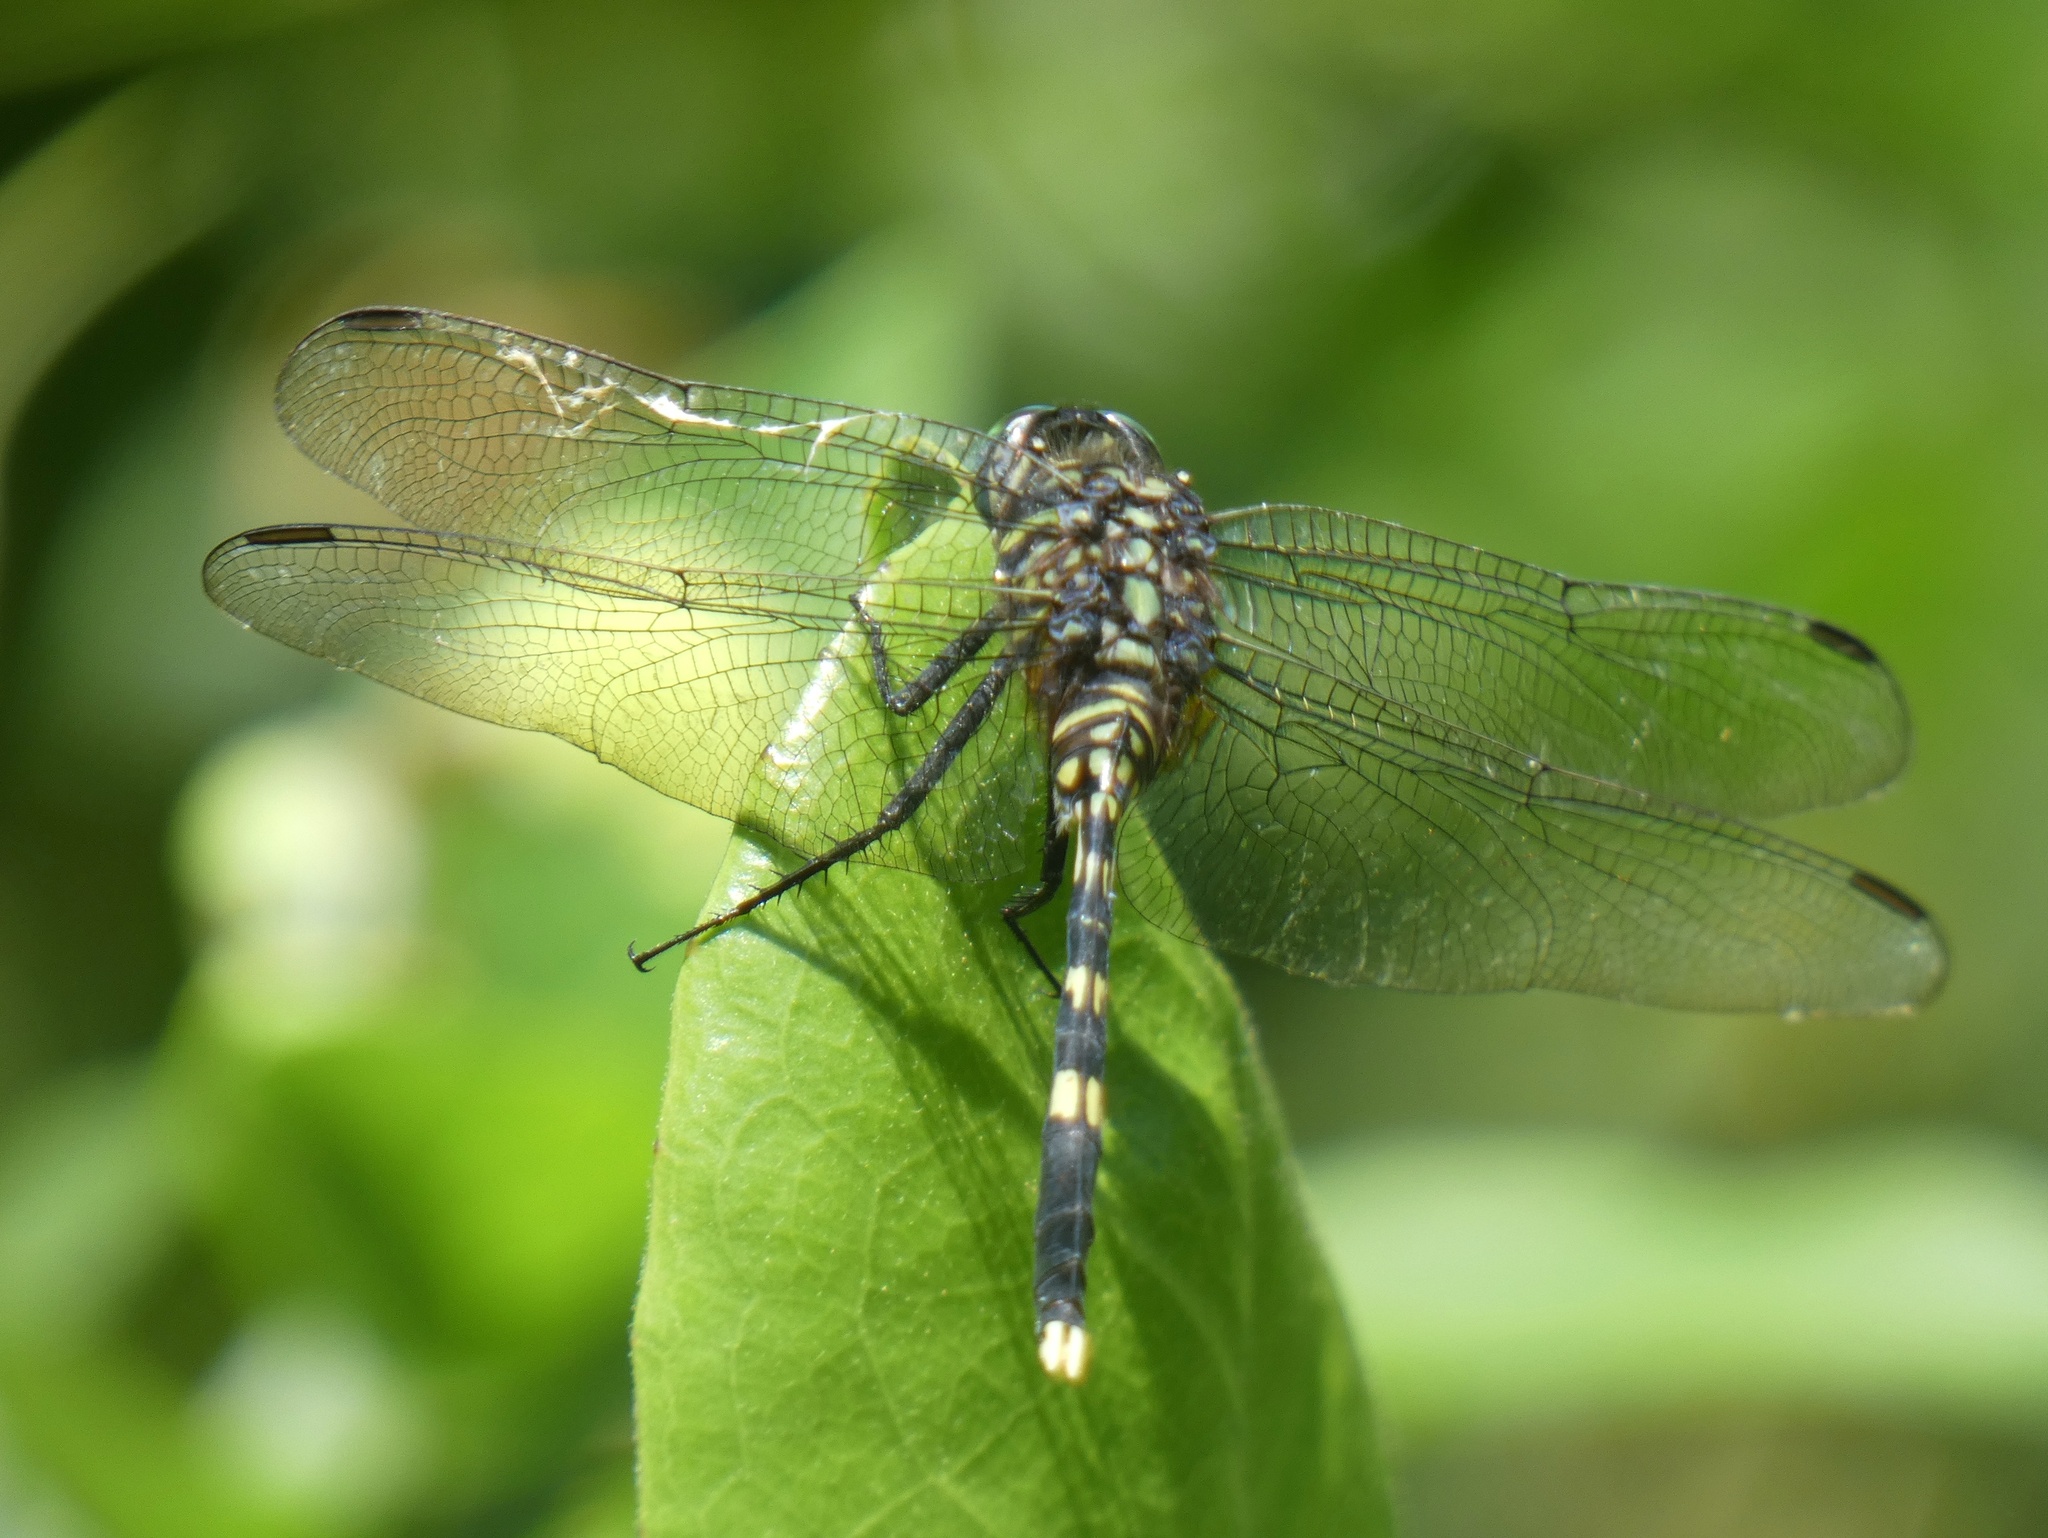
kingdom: Animalia
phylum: Arthropoda
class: Insecta
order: Odonata
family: Libellulidae
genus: Orthetrum
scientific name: Orthetrum serapia
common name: Green skimmer
